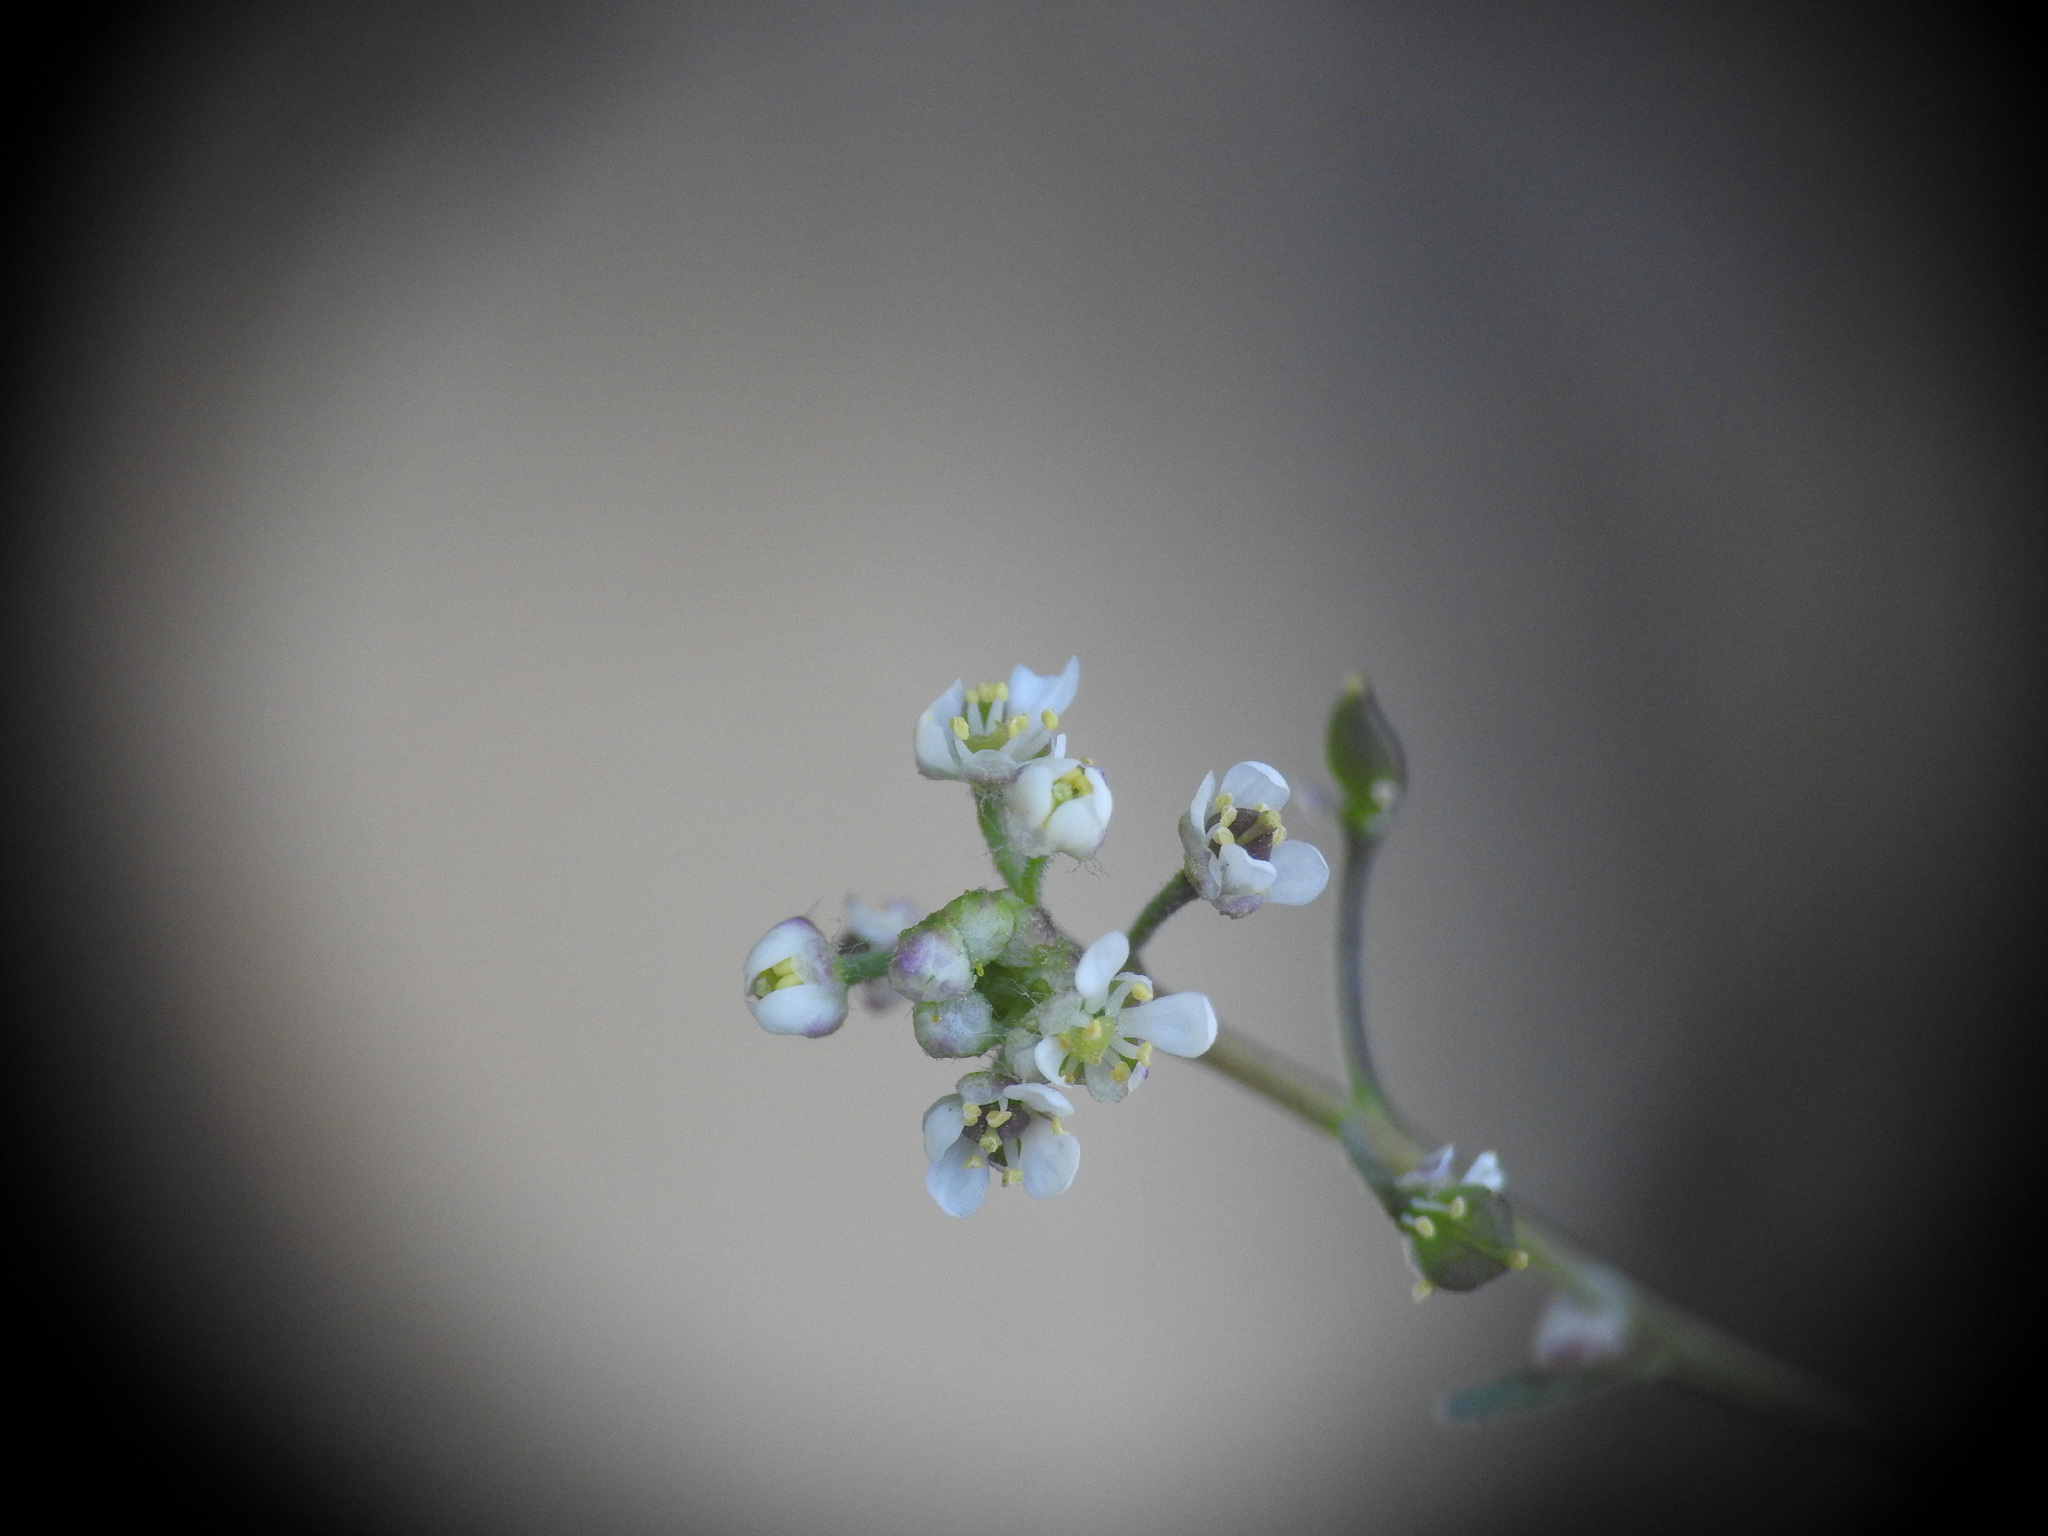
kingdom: Plantae
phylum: Tracheophyta
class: Magnoliopsida
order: Brassicales
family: Brassicaceae
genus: Lepidium
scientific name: Lepidium graminifolium
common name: Tall pepperwort
